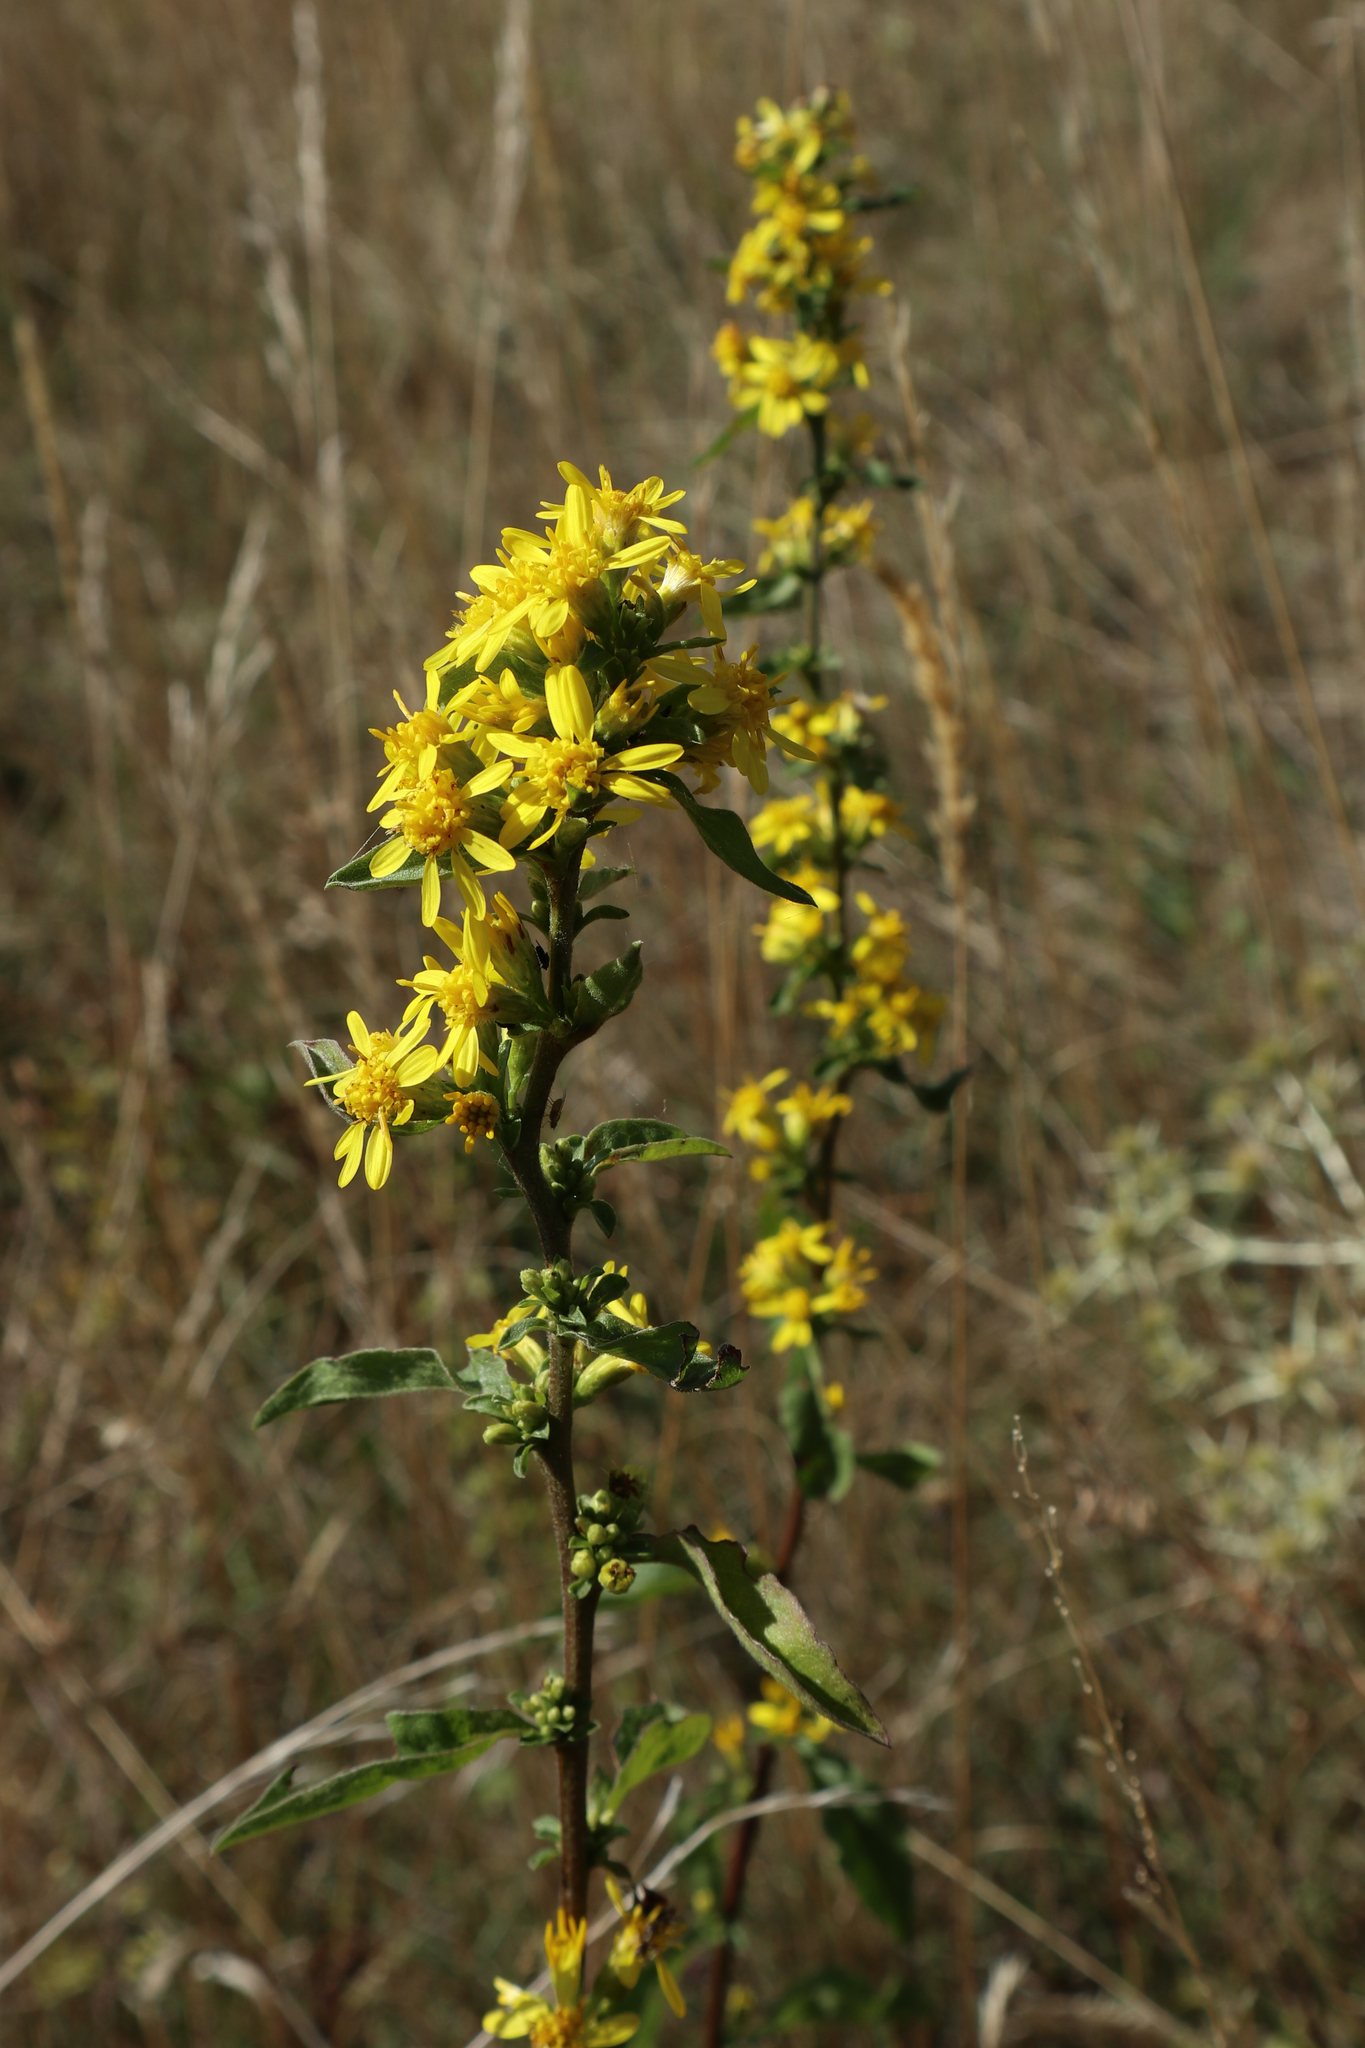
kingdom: Plantae
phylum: Tracheophyta
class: Magnoliopsida
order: Asterales
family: Asteraceae
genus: Solidago
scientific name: Solidago virgaurea
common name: Goldenrod
